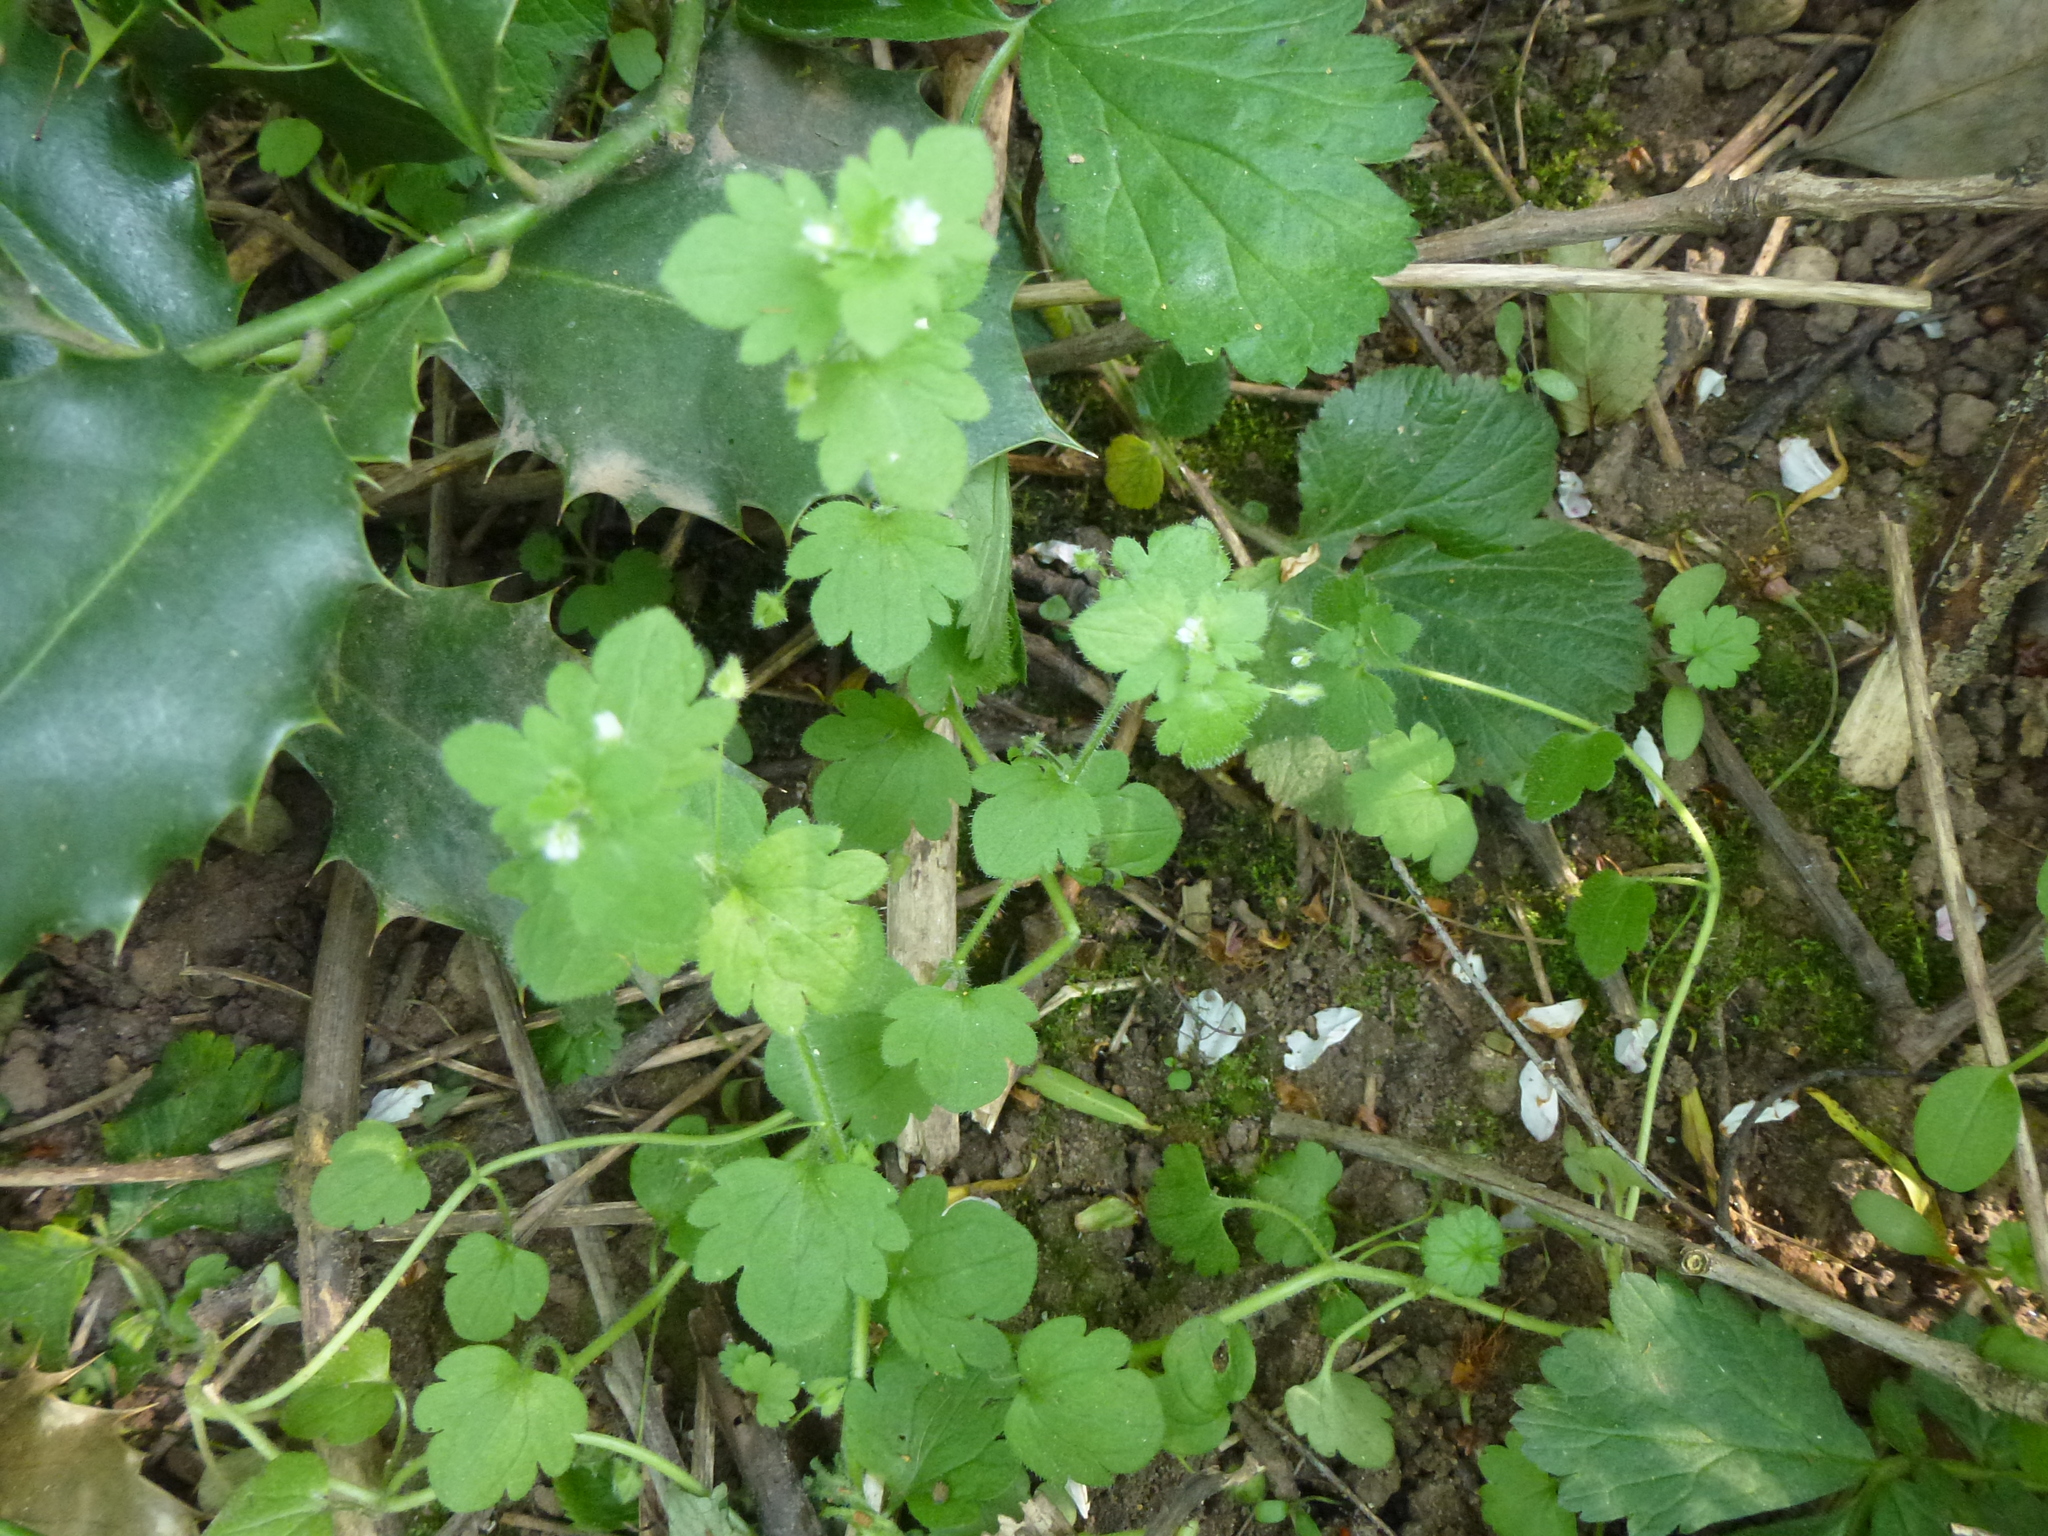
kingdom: Plantae
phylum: Tracheophyta
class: Magnoliopsida
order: Lamiales
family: Plantaginaceae
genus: Veronica
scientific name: Veronica hederifolia
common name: Ivy-leaved speedwell
